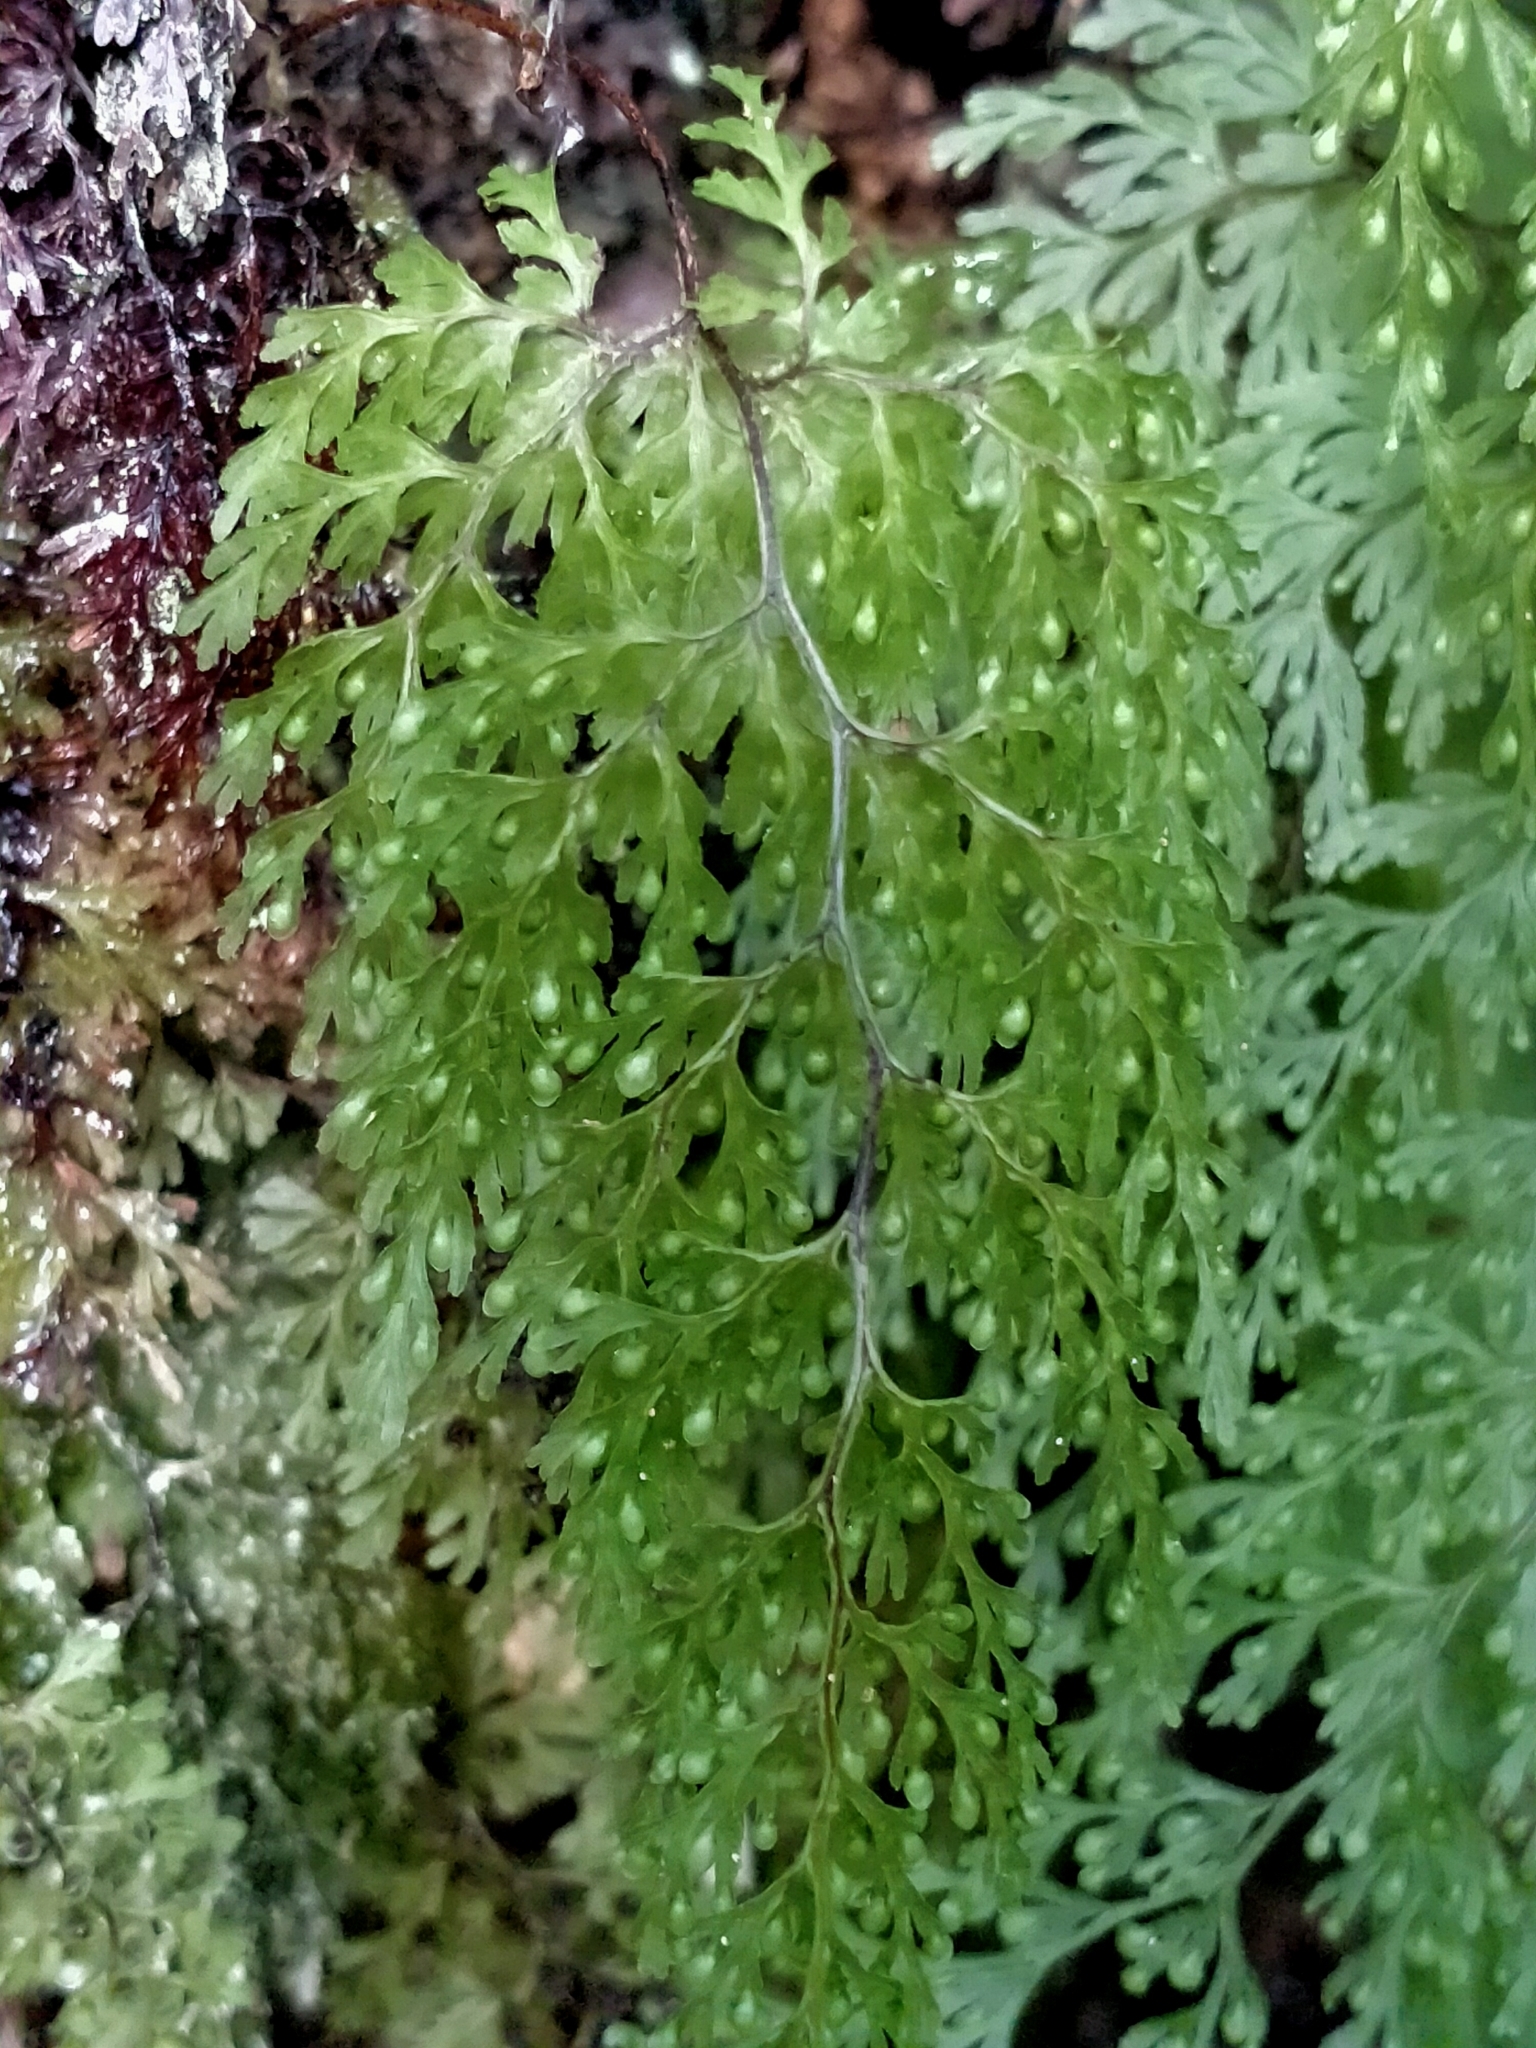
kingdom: Plantae
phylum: Tracheophyta
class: Polypodiopsida
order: Hymenophyllales
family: Hymenophyllaceae
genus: Hymenophyllum
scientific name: Hymenophyllum bivalve
